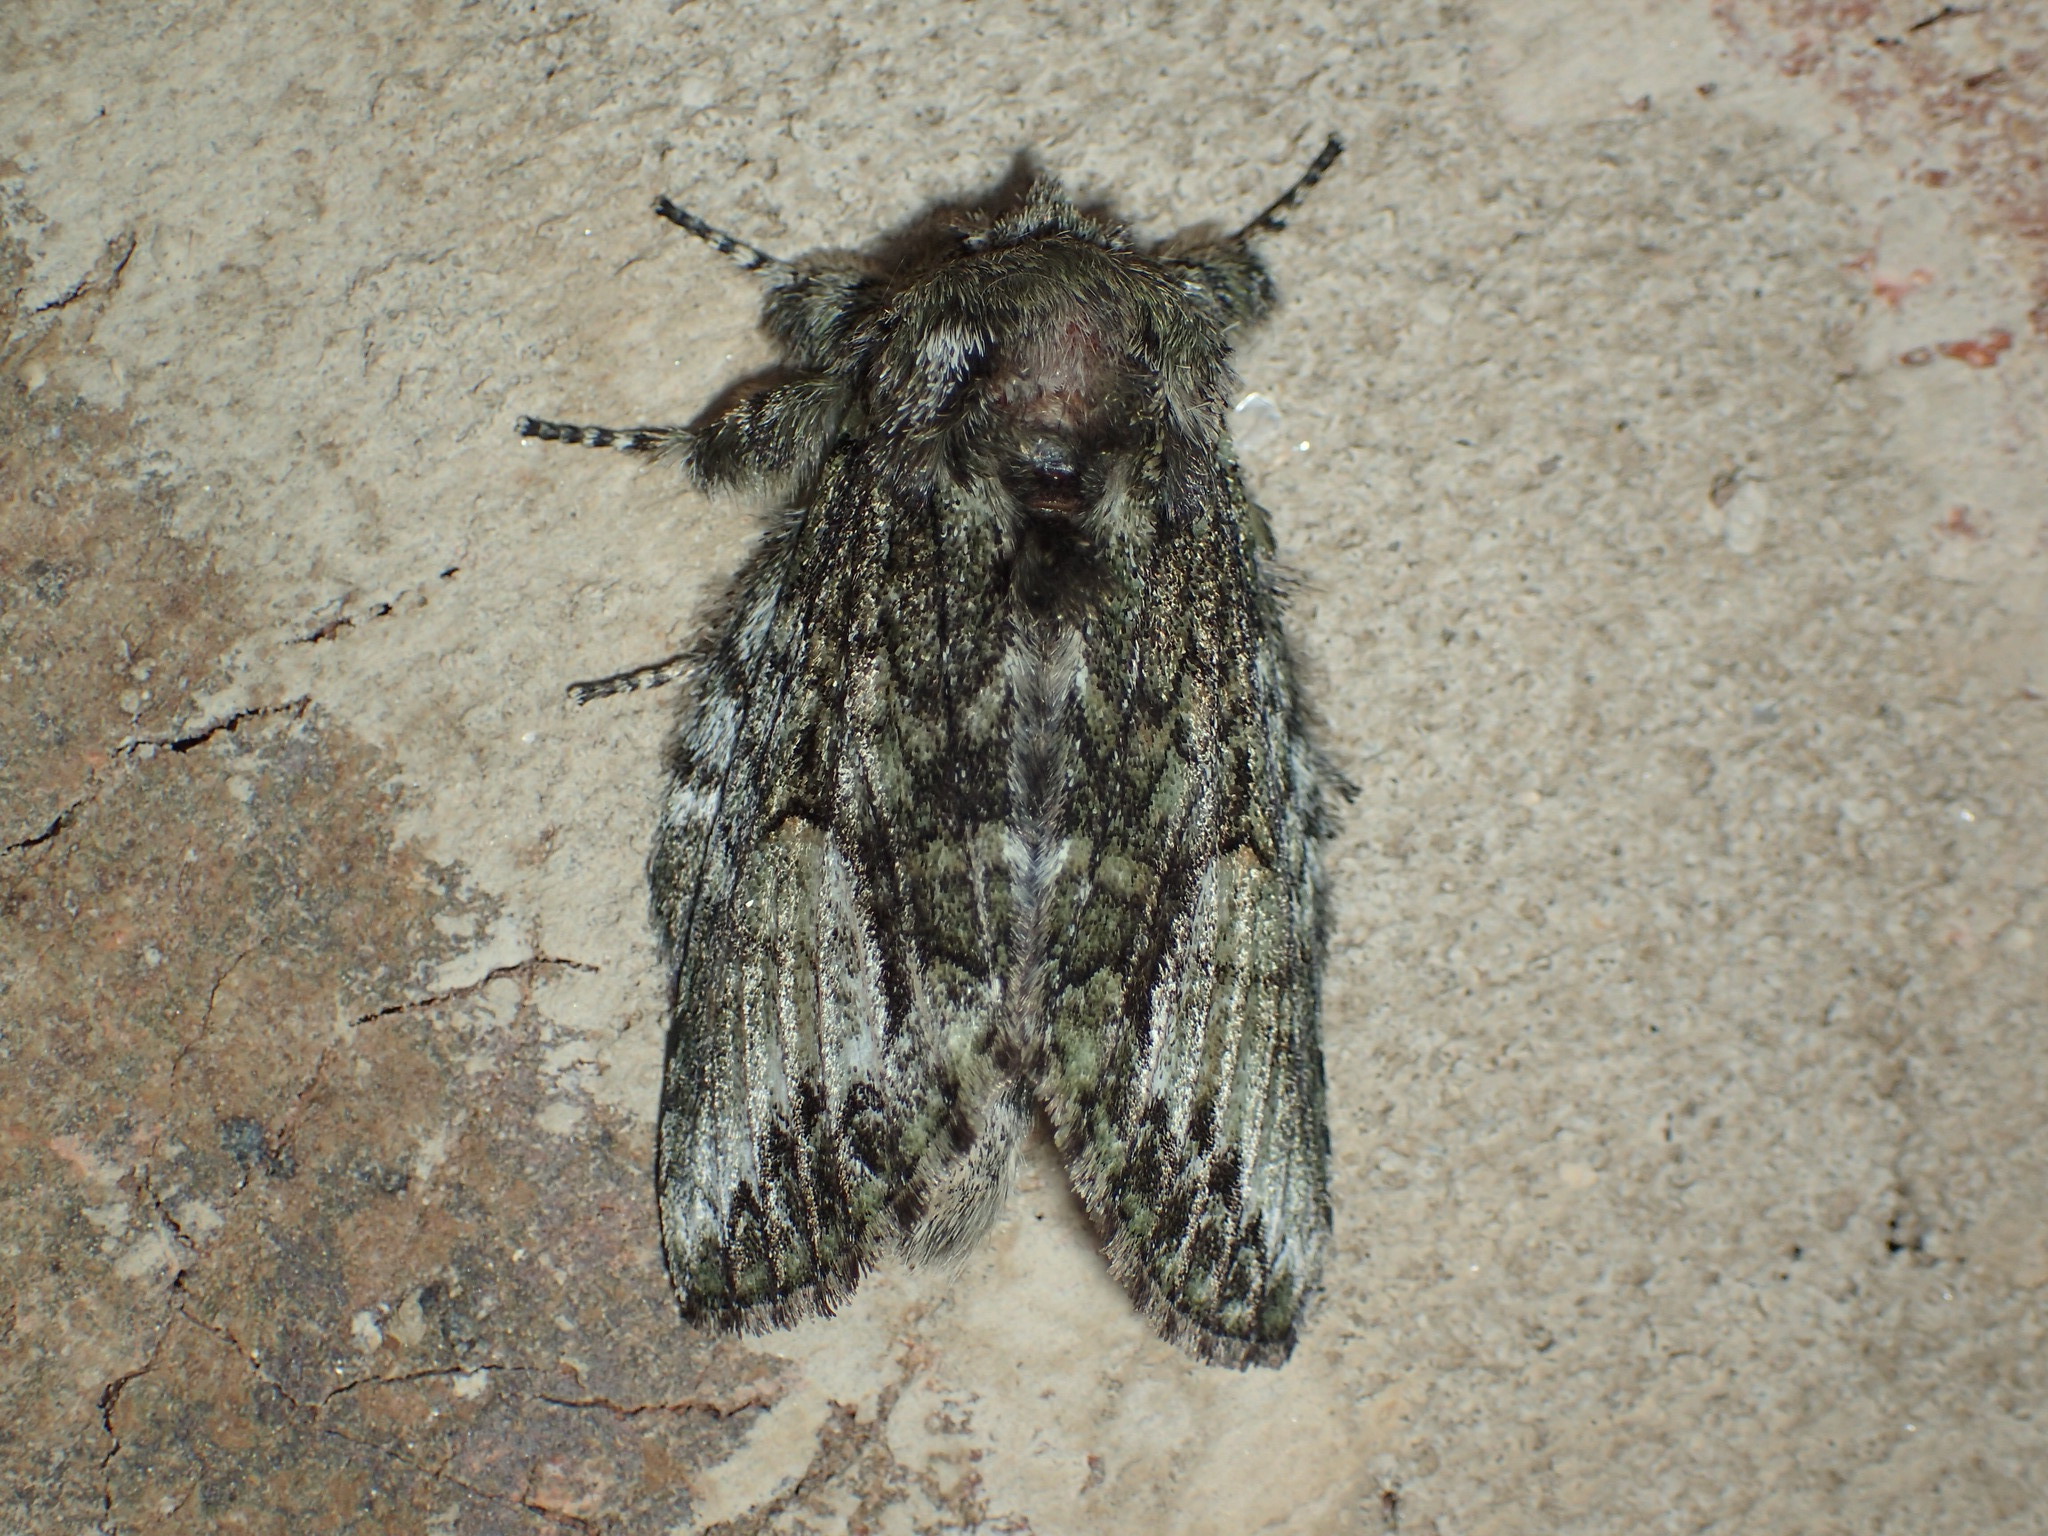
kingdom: Animalia
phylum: Arthropoda
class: Insecta
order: Lepidoptera
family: Notodontidae
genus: Heterocampa
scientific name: Heterocampa
